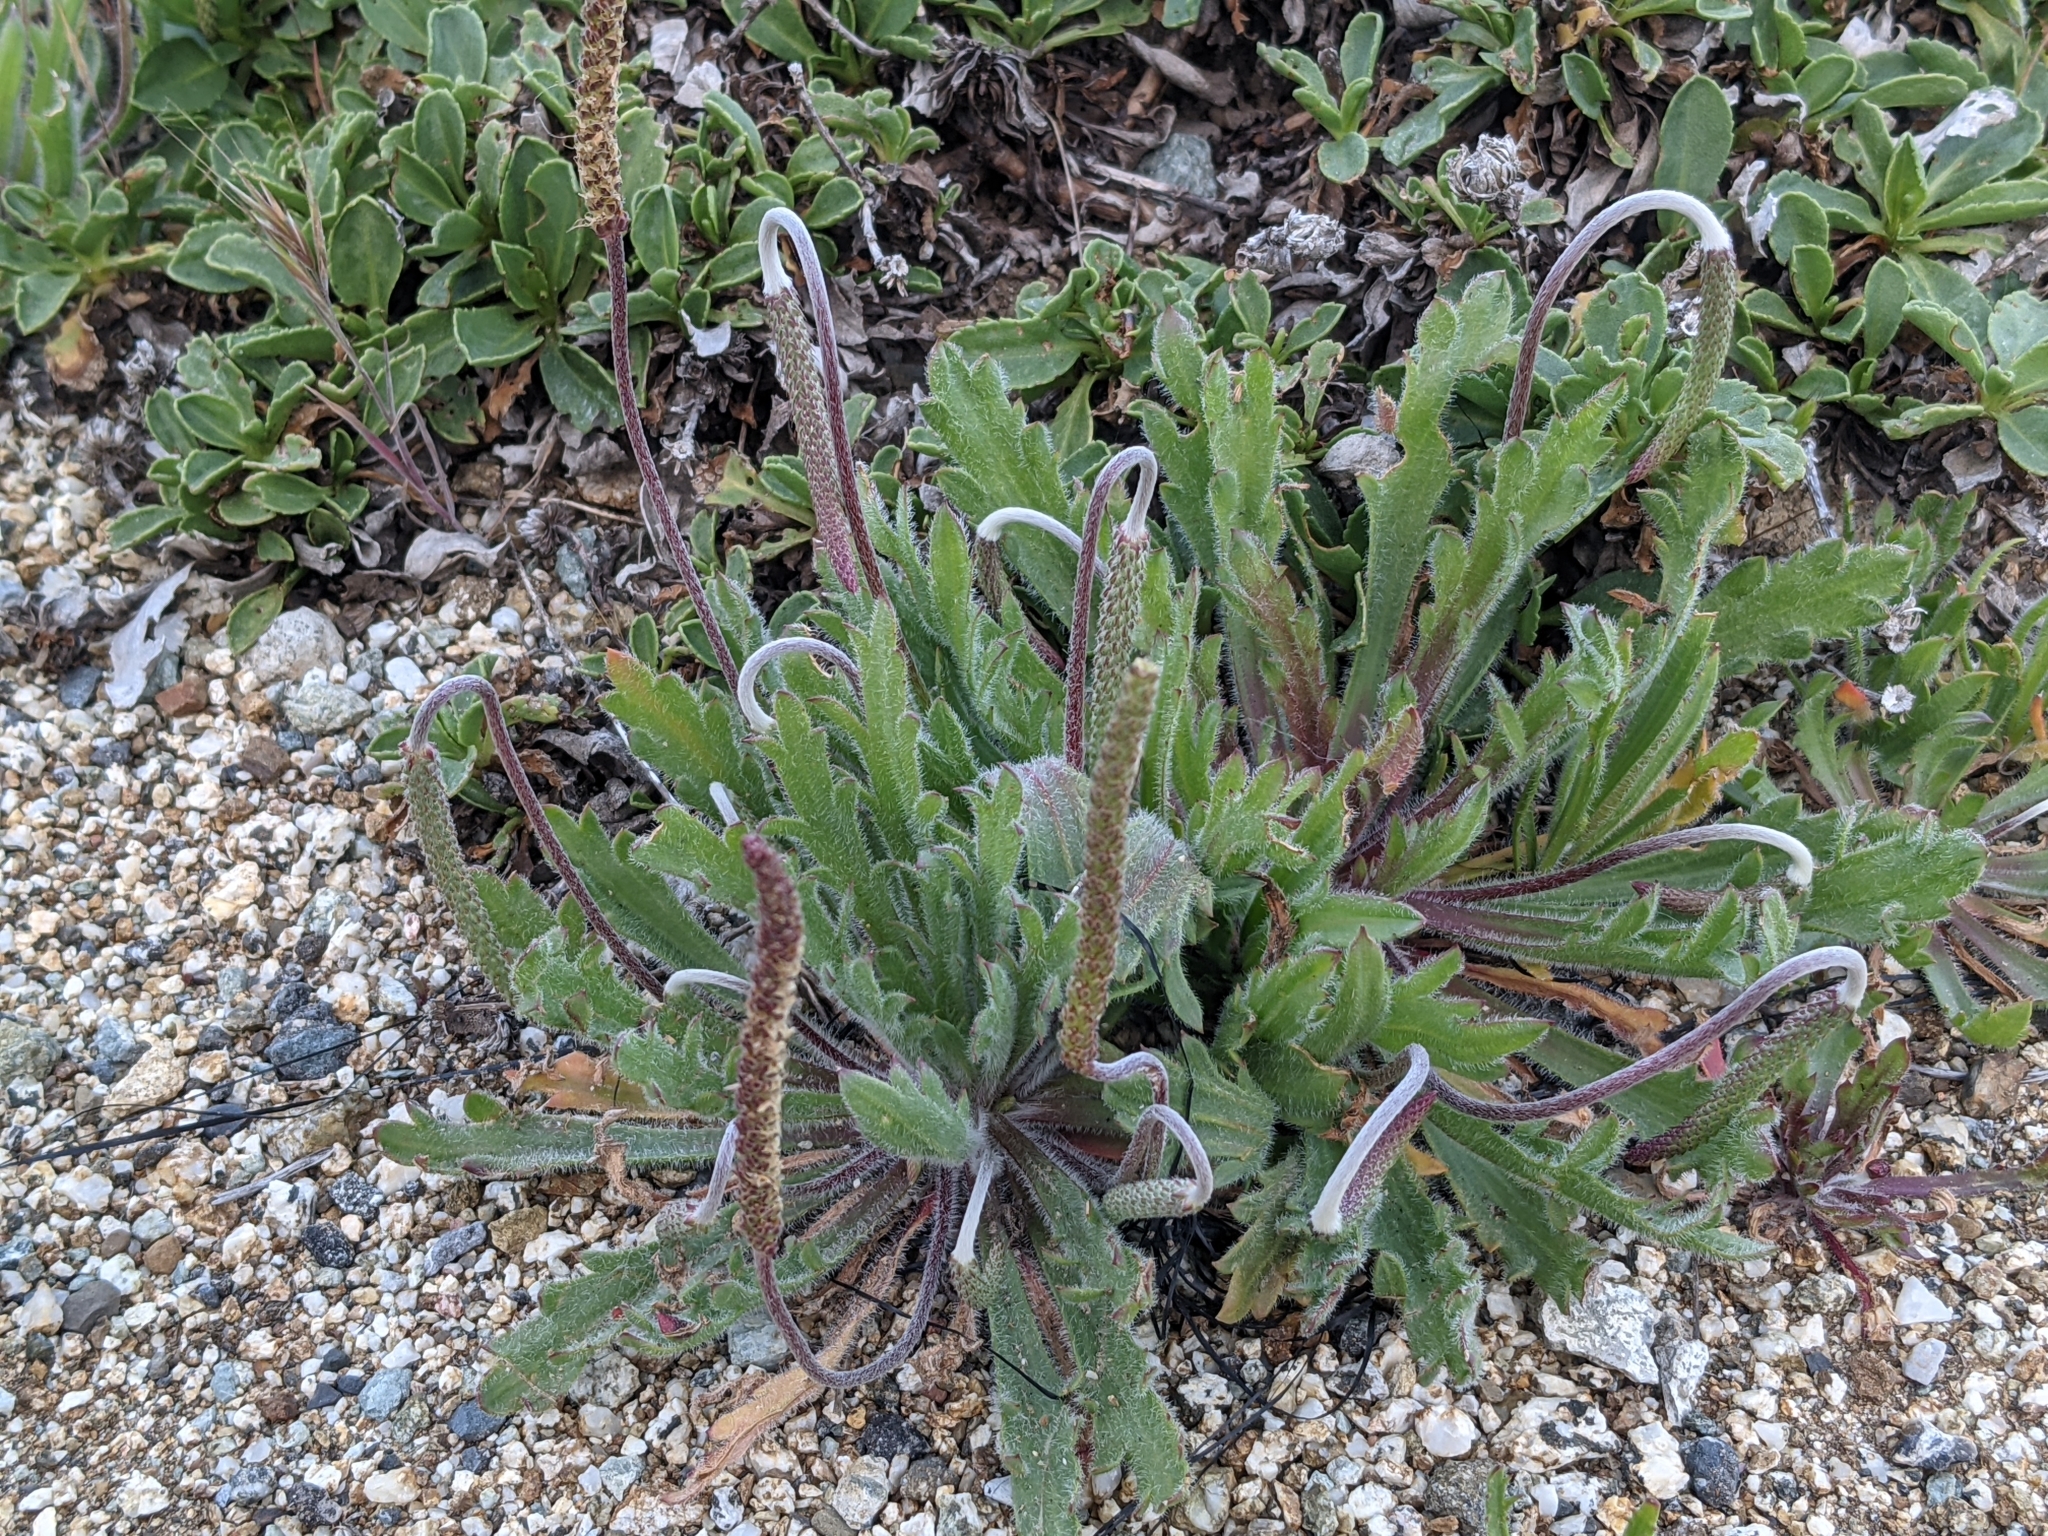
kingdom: Plantae
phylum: Tracheophyta
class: Magnoliopsida
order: Lamiales
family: Plantaginaceae
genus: Plantago
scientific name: Plantago coronopus
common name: Buck's-horn plantain
